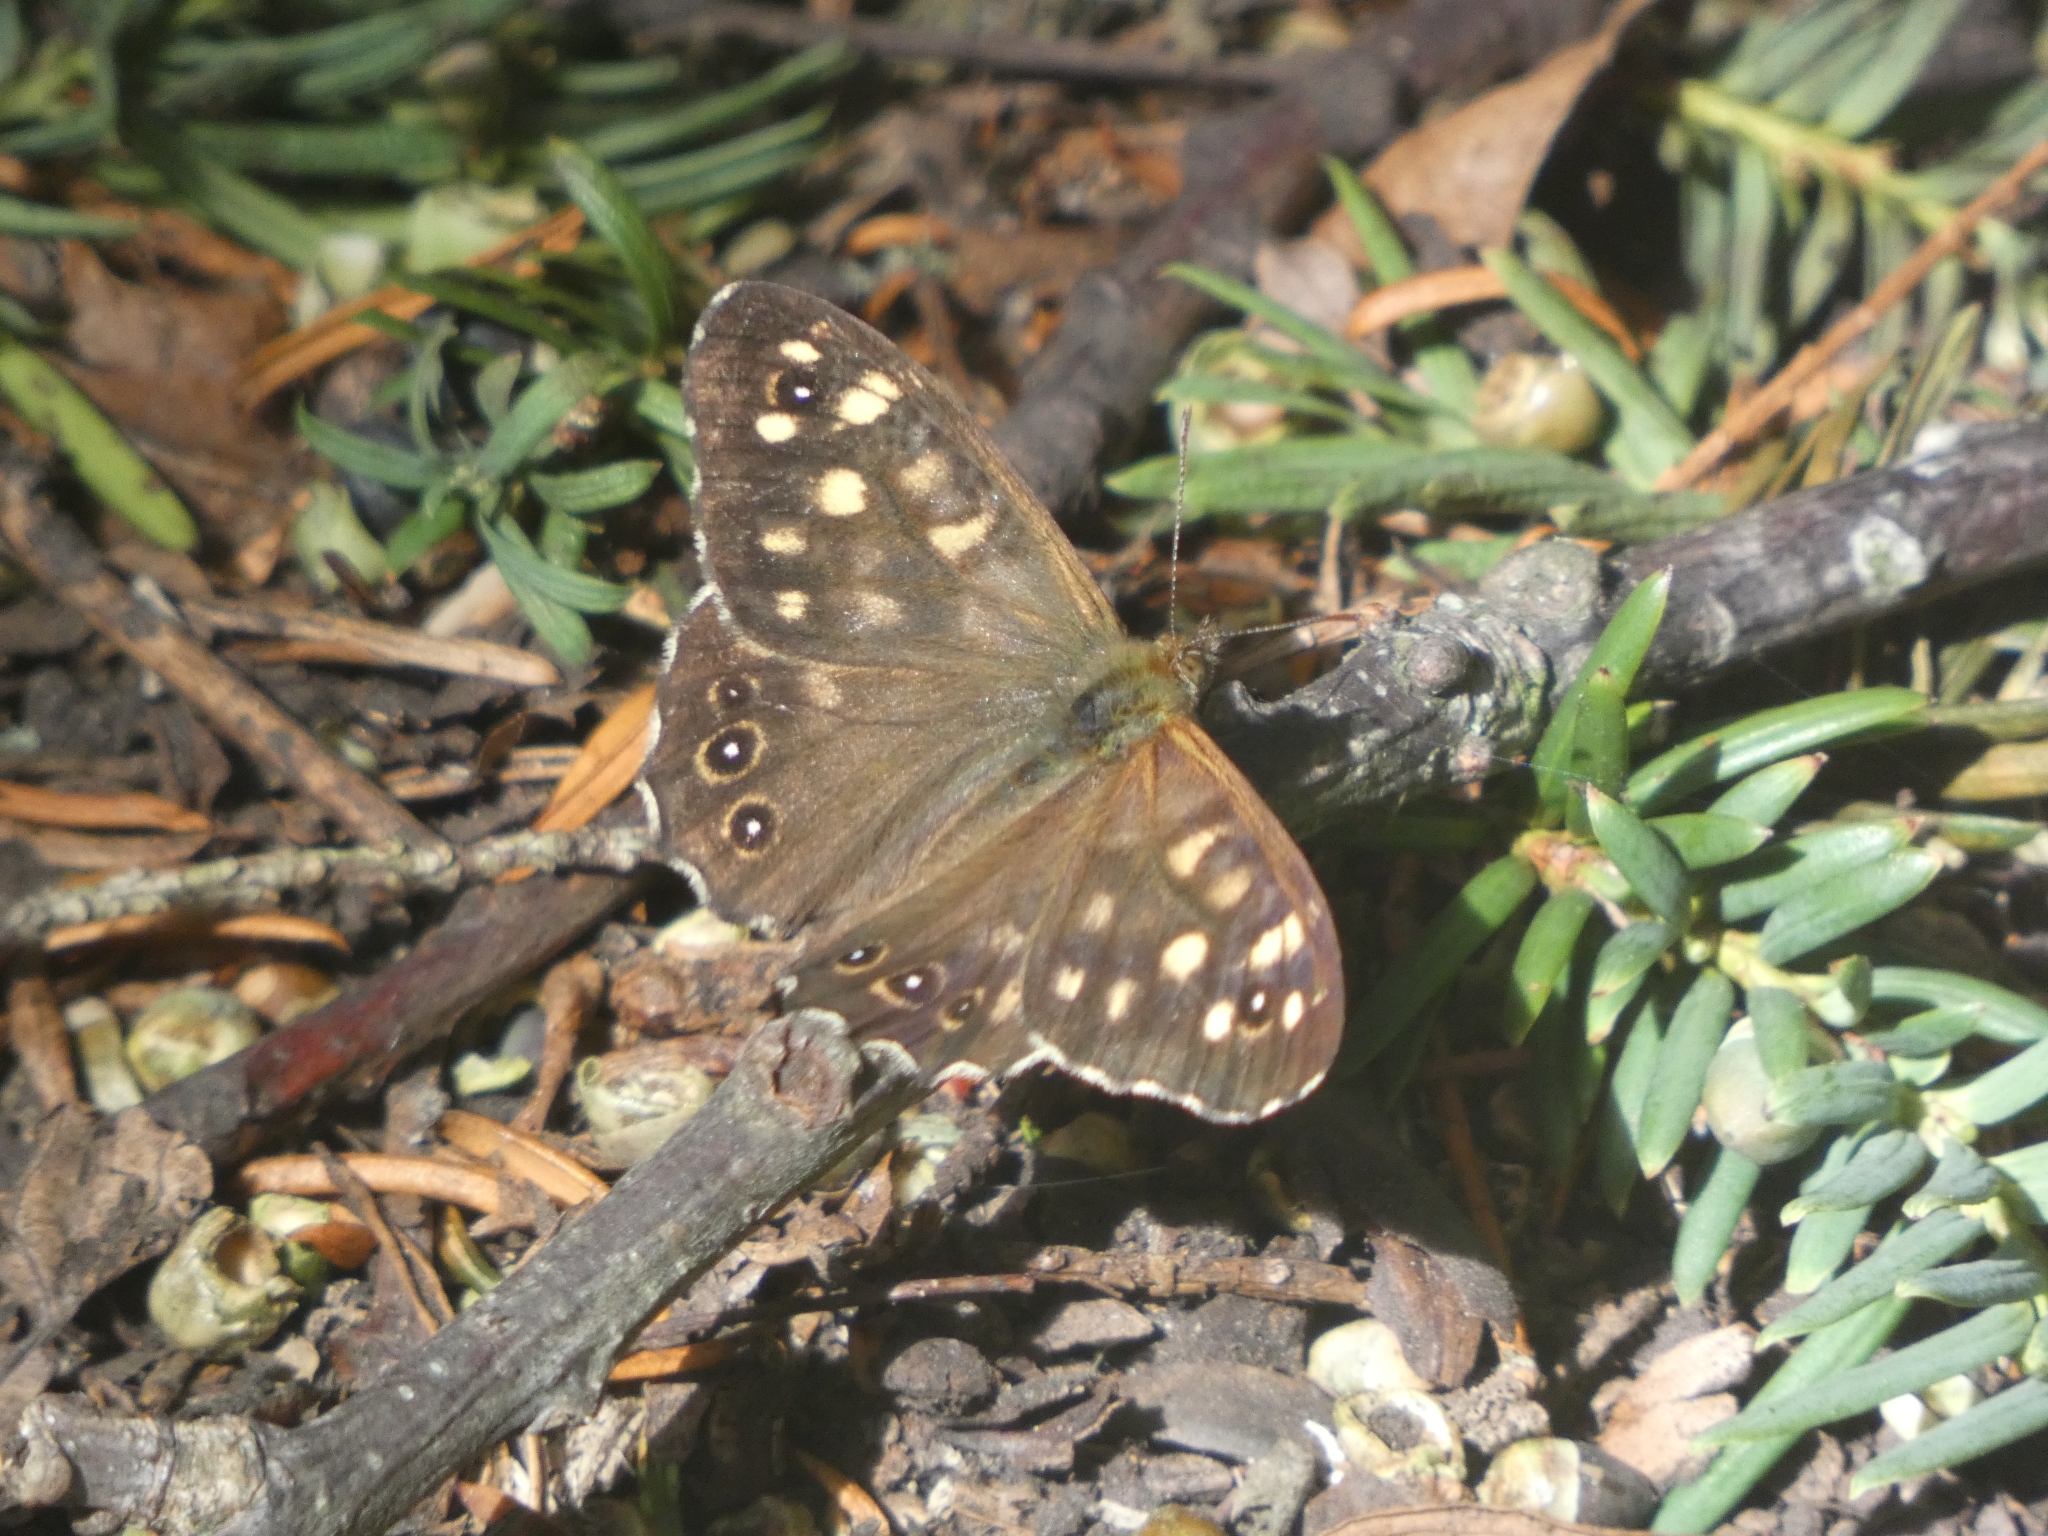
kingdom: Animalia
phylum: Arthropoda
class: Insecta
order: Lepidoptera
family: Nymphalidae
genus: Pararge
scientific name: Pararge aegeria
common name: Speckled wood
